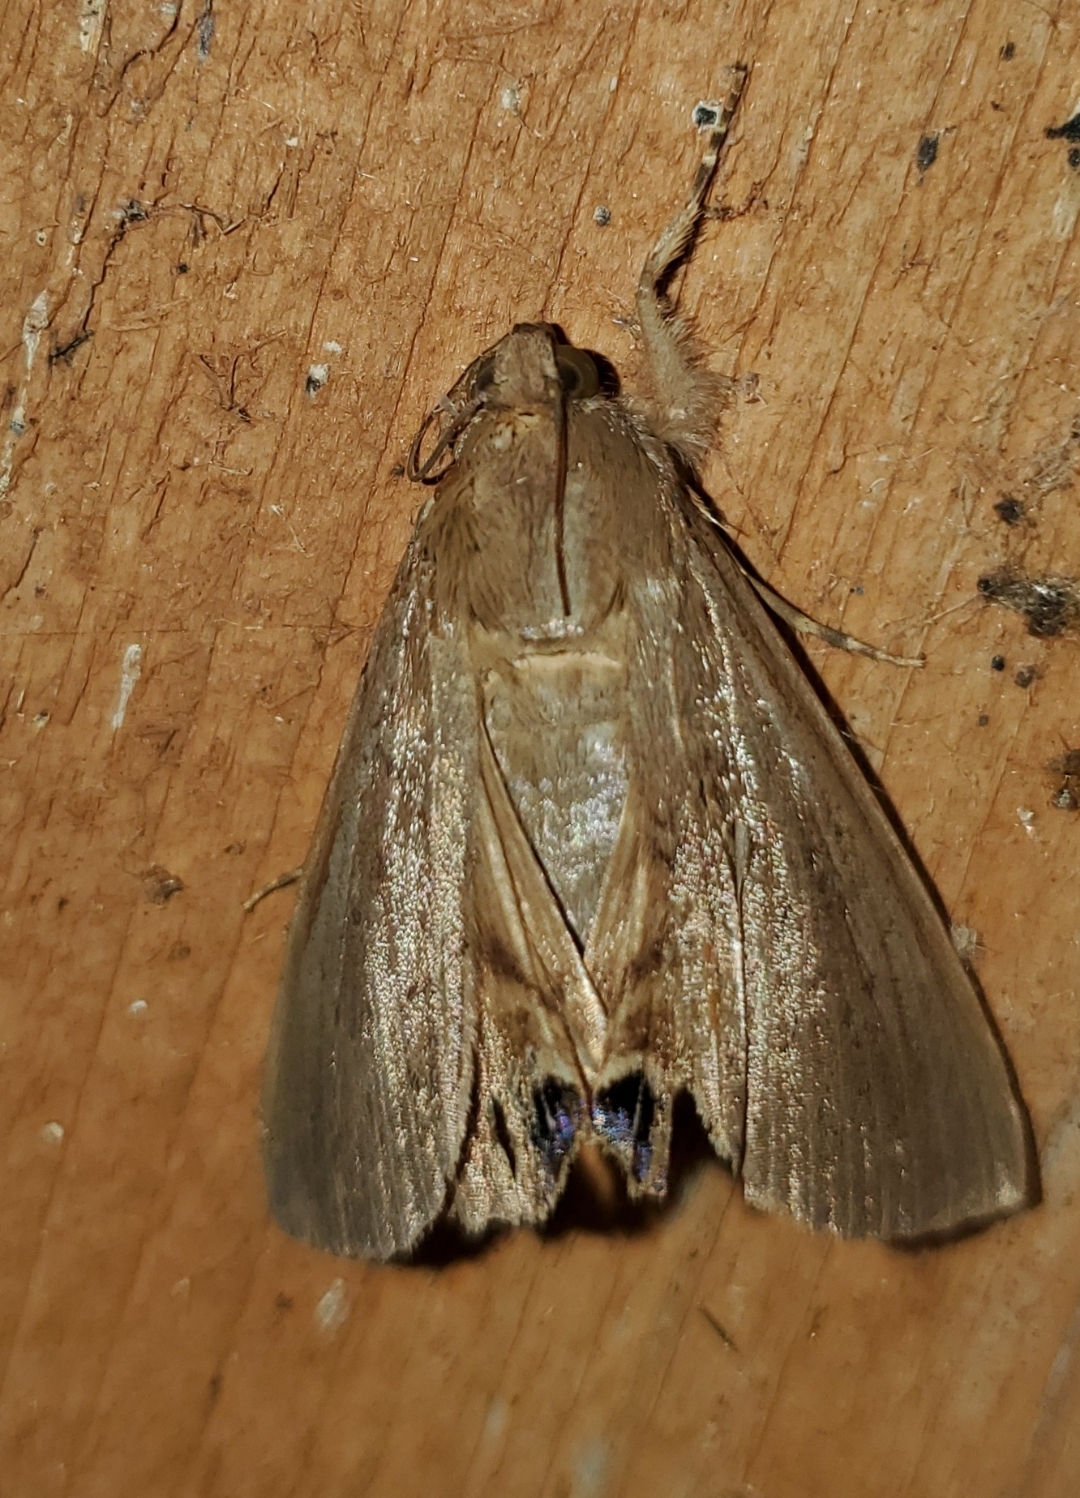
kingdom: Animalia
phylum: Arthropoda
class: Insecta
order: Lepidoptera
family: Erebidae
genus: Litoprosopus
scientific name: Litoprosopus futilis
